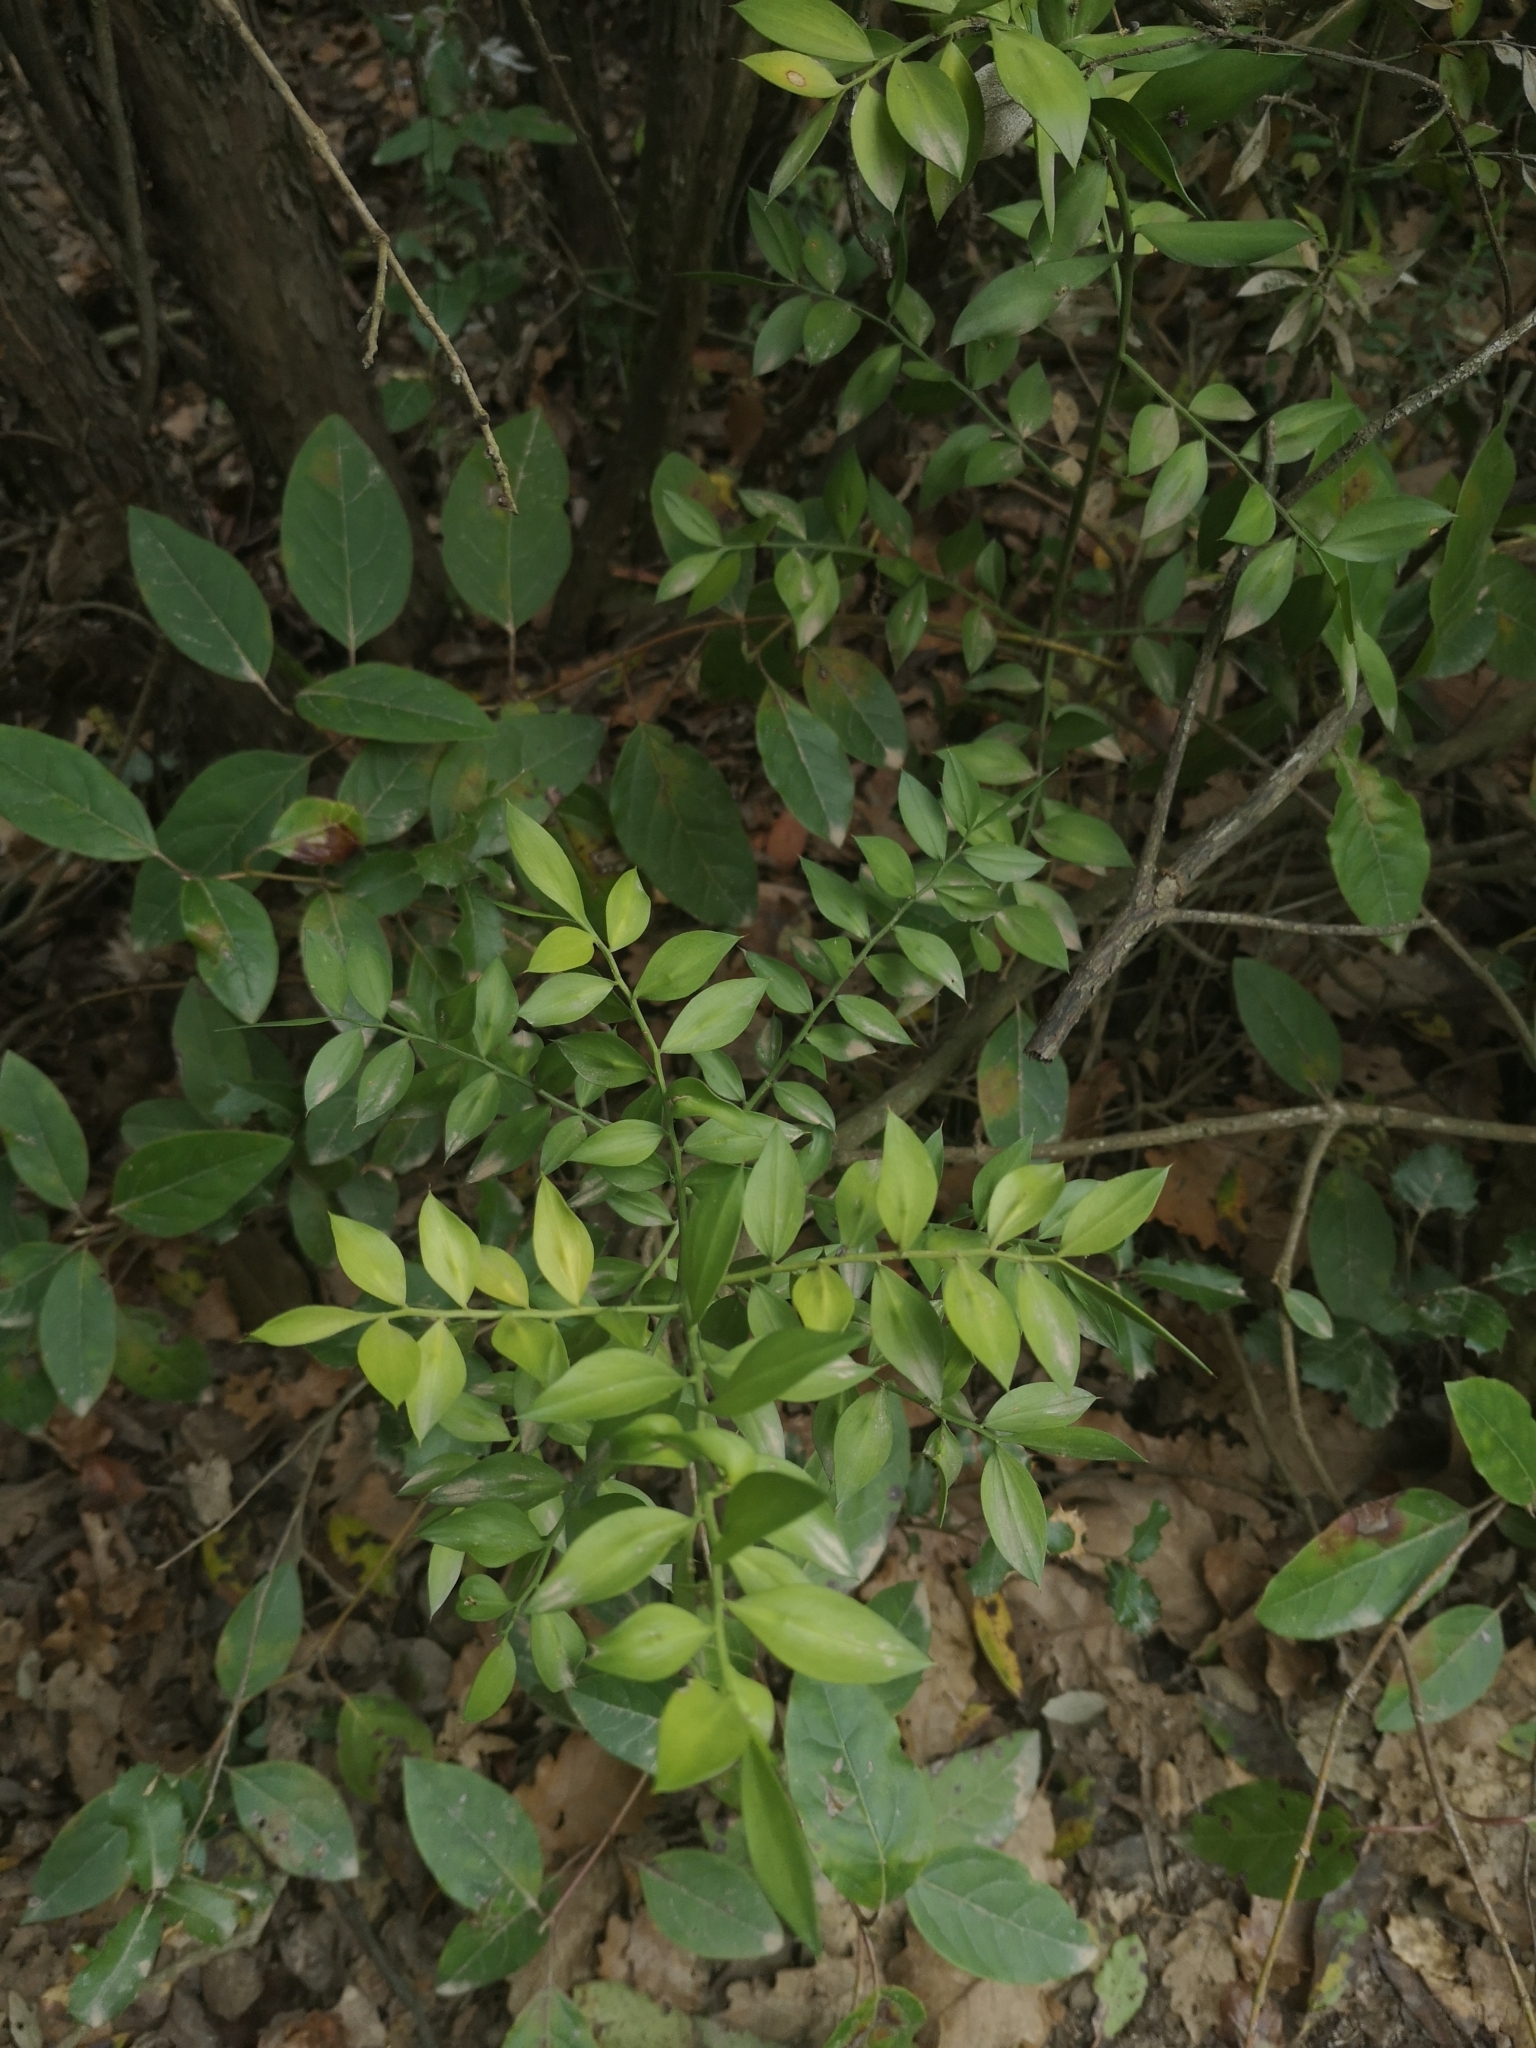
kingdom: Plantae
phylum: Tracheophyta
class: Liliopsida
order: Asparagales
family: Asparagaceae
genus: Ruscus
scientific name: Ruscus aculeatus
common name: Butcher's-broom
